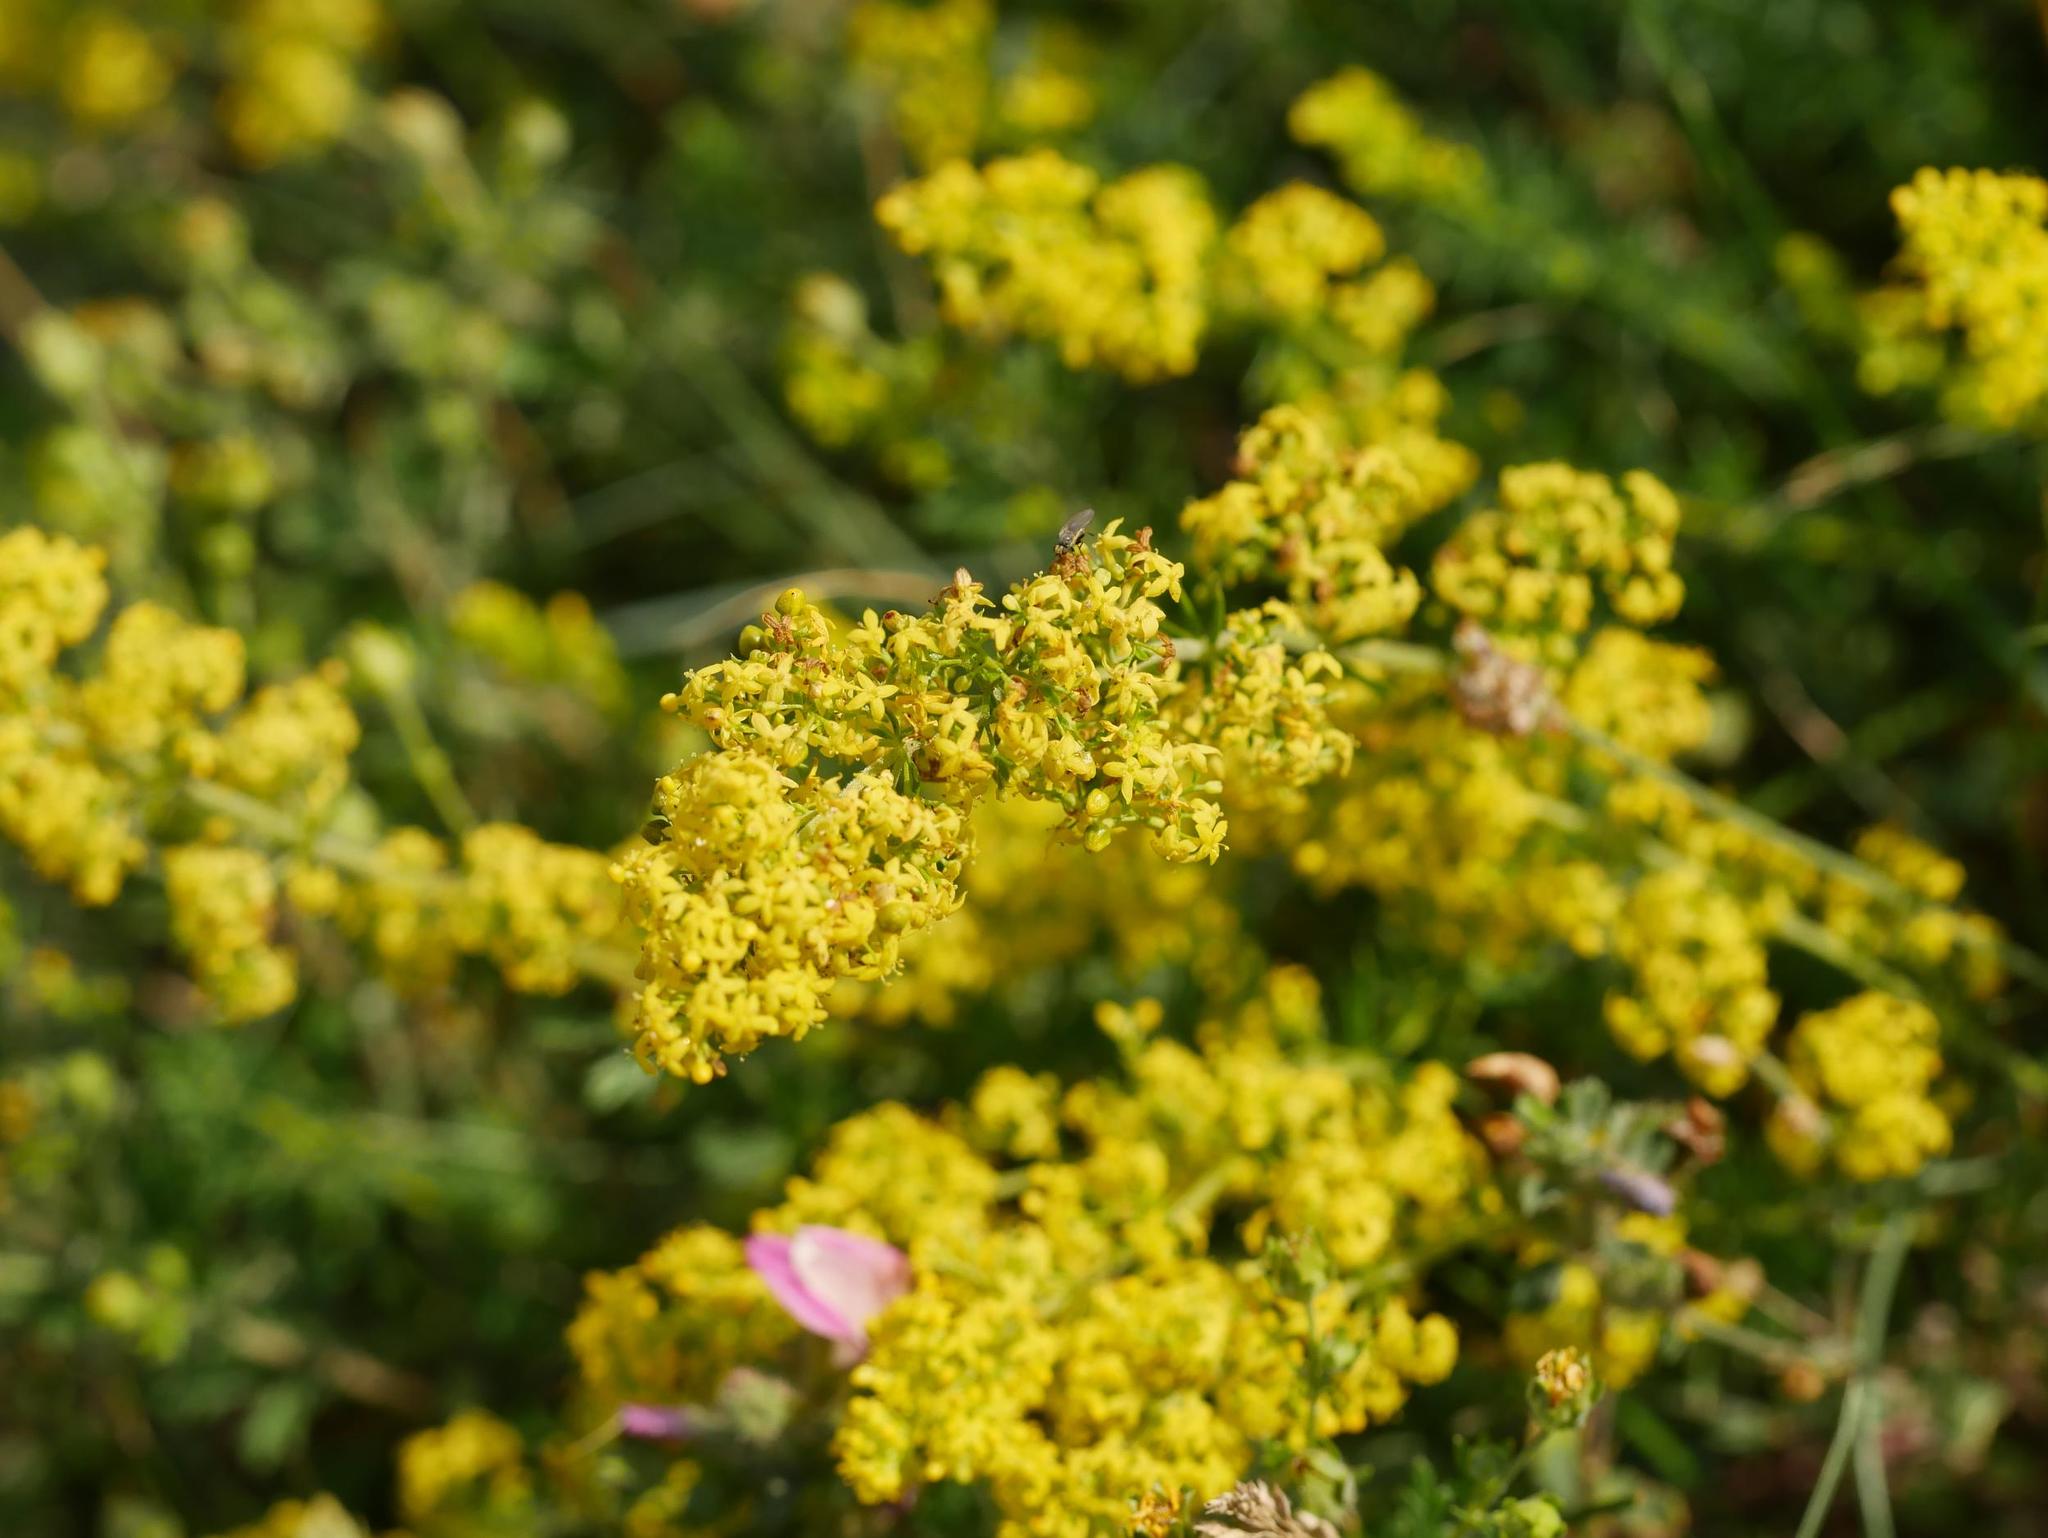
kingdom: Plantae
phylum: Tracheophyta
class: Magnoliopsida
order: Gentianales
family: Rubiaceae
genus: Galium
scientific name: Galium verum
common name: Lady's bedstraw
